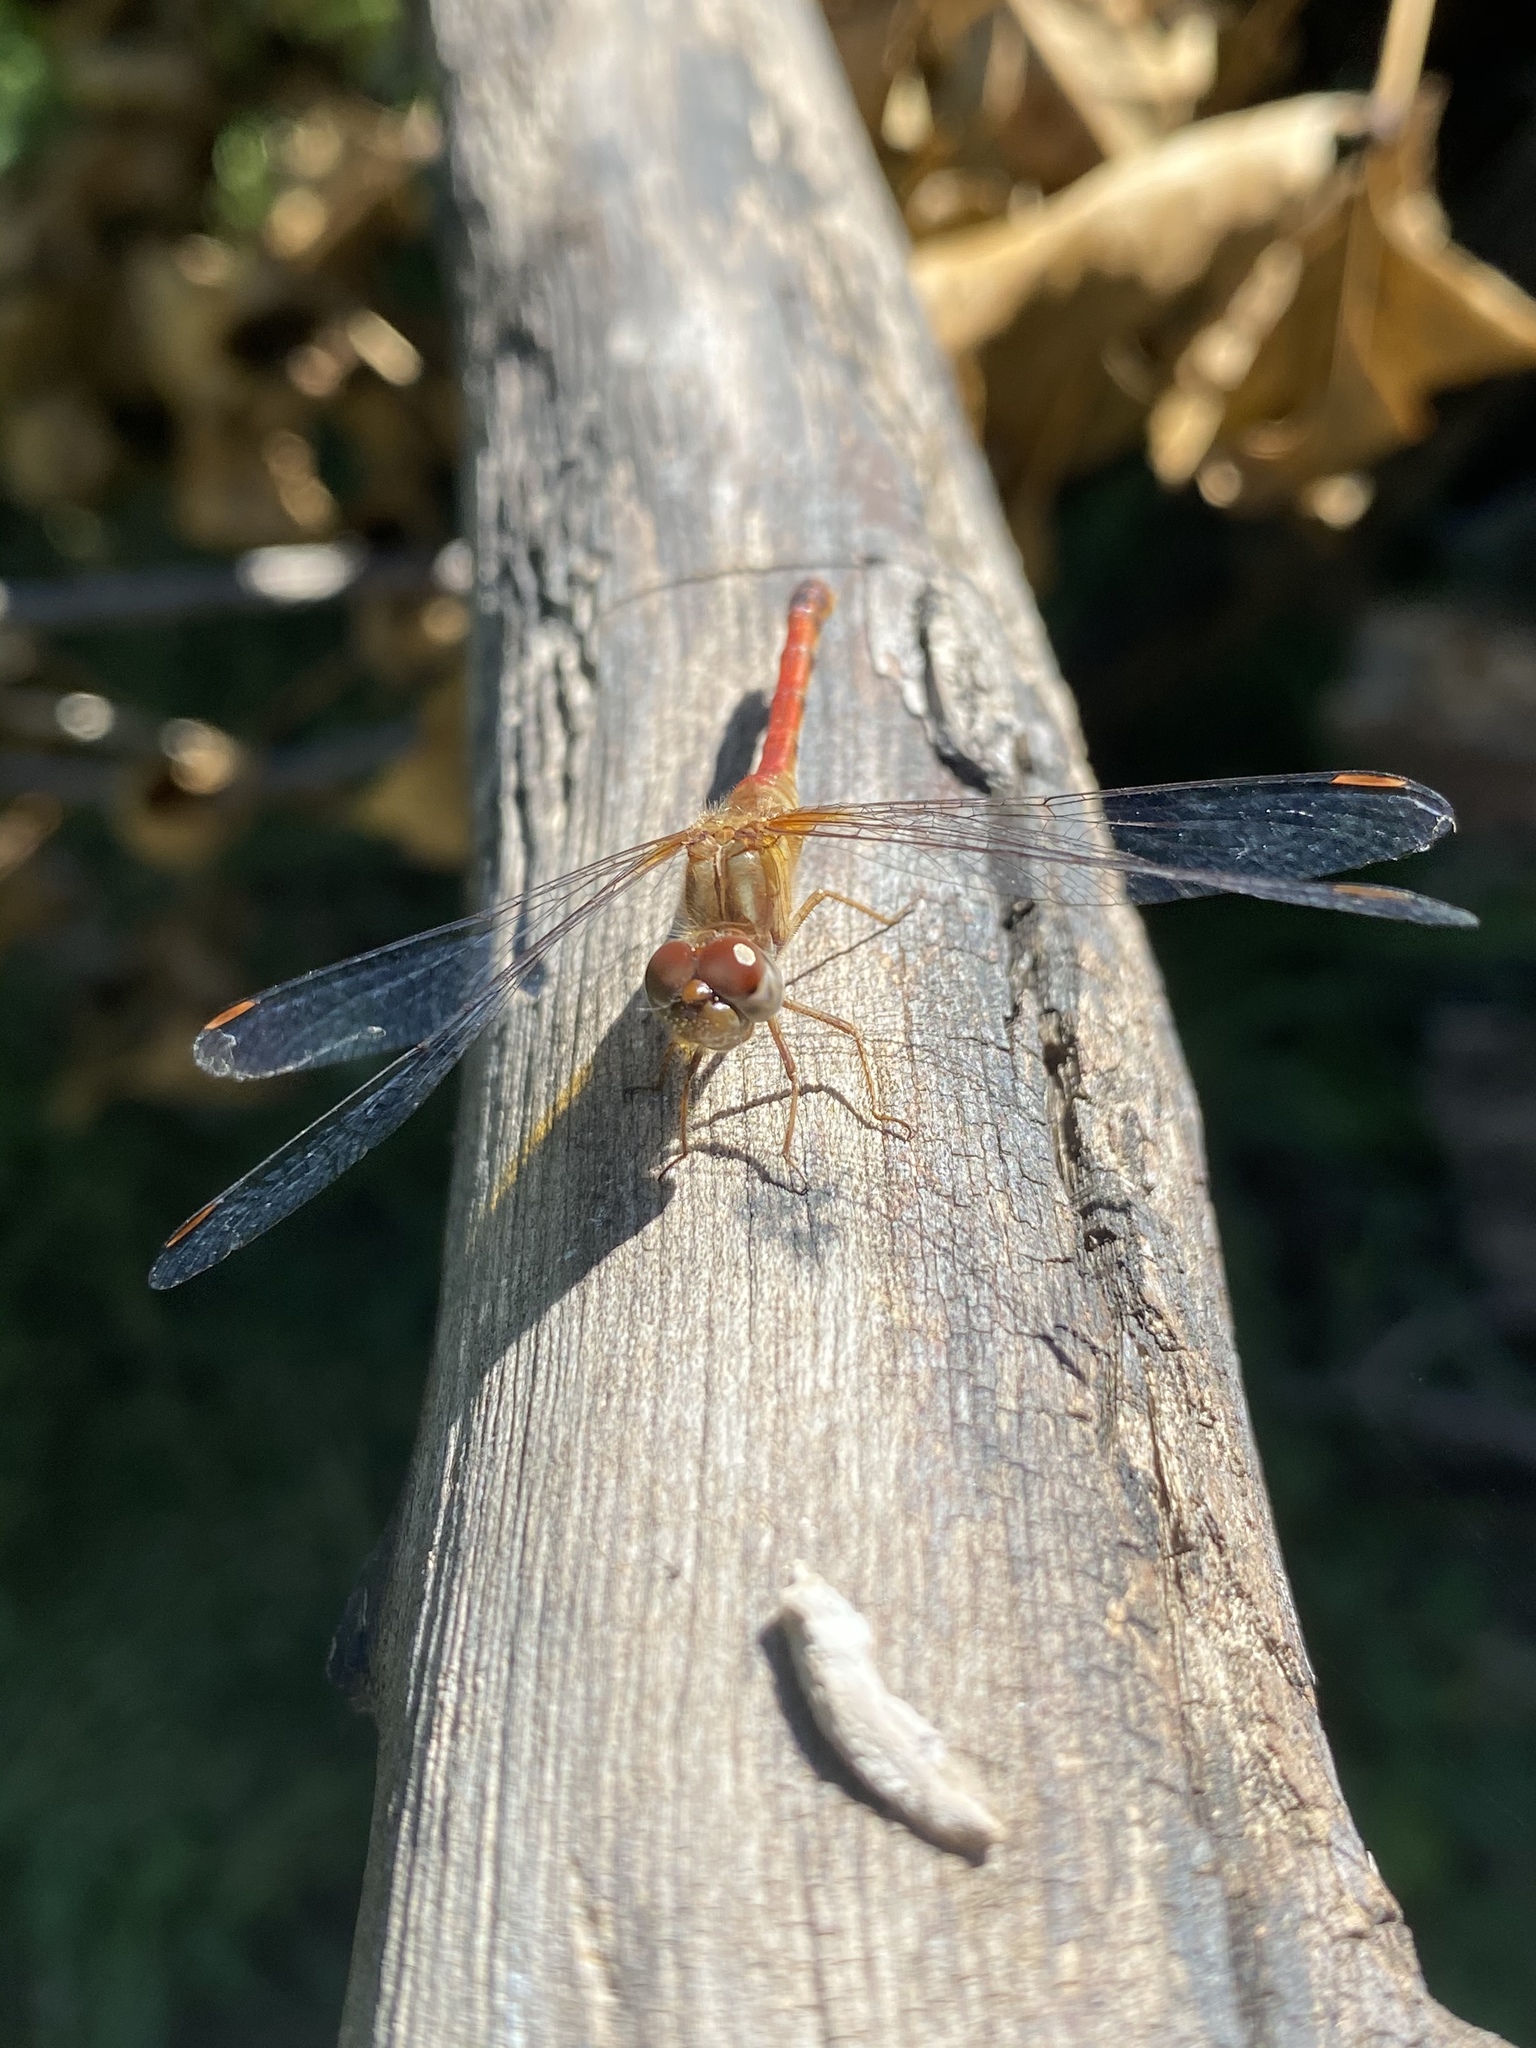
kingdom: Animalia
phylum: Arthropoda
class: Insecta
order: Odonata
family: Libellulidae
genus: Sympetrum
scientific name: Sympetrum vicinum
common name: Autumn meadowhawk
